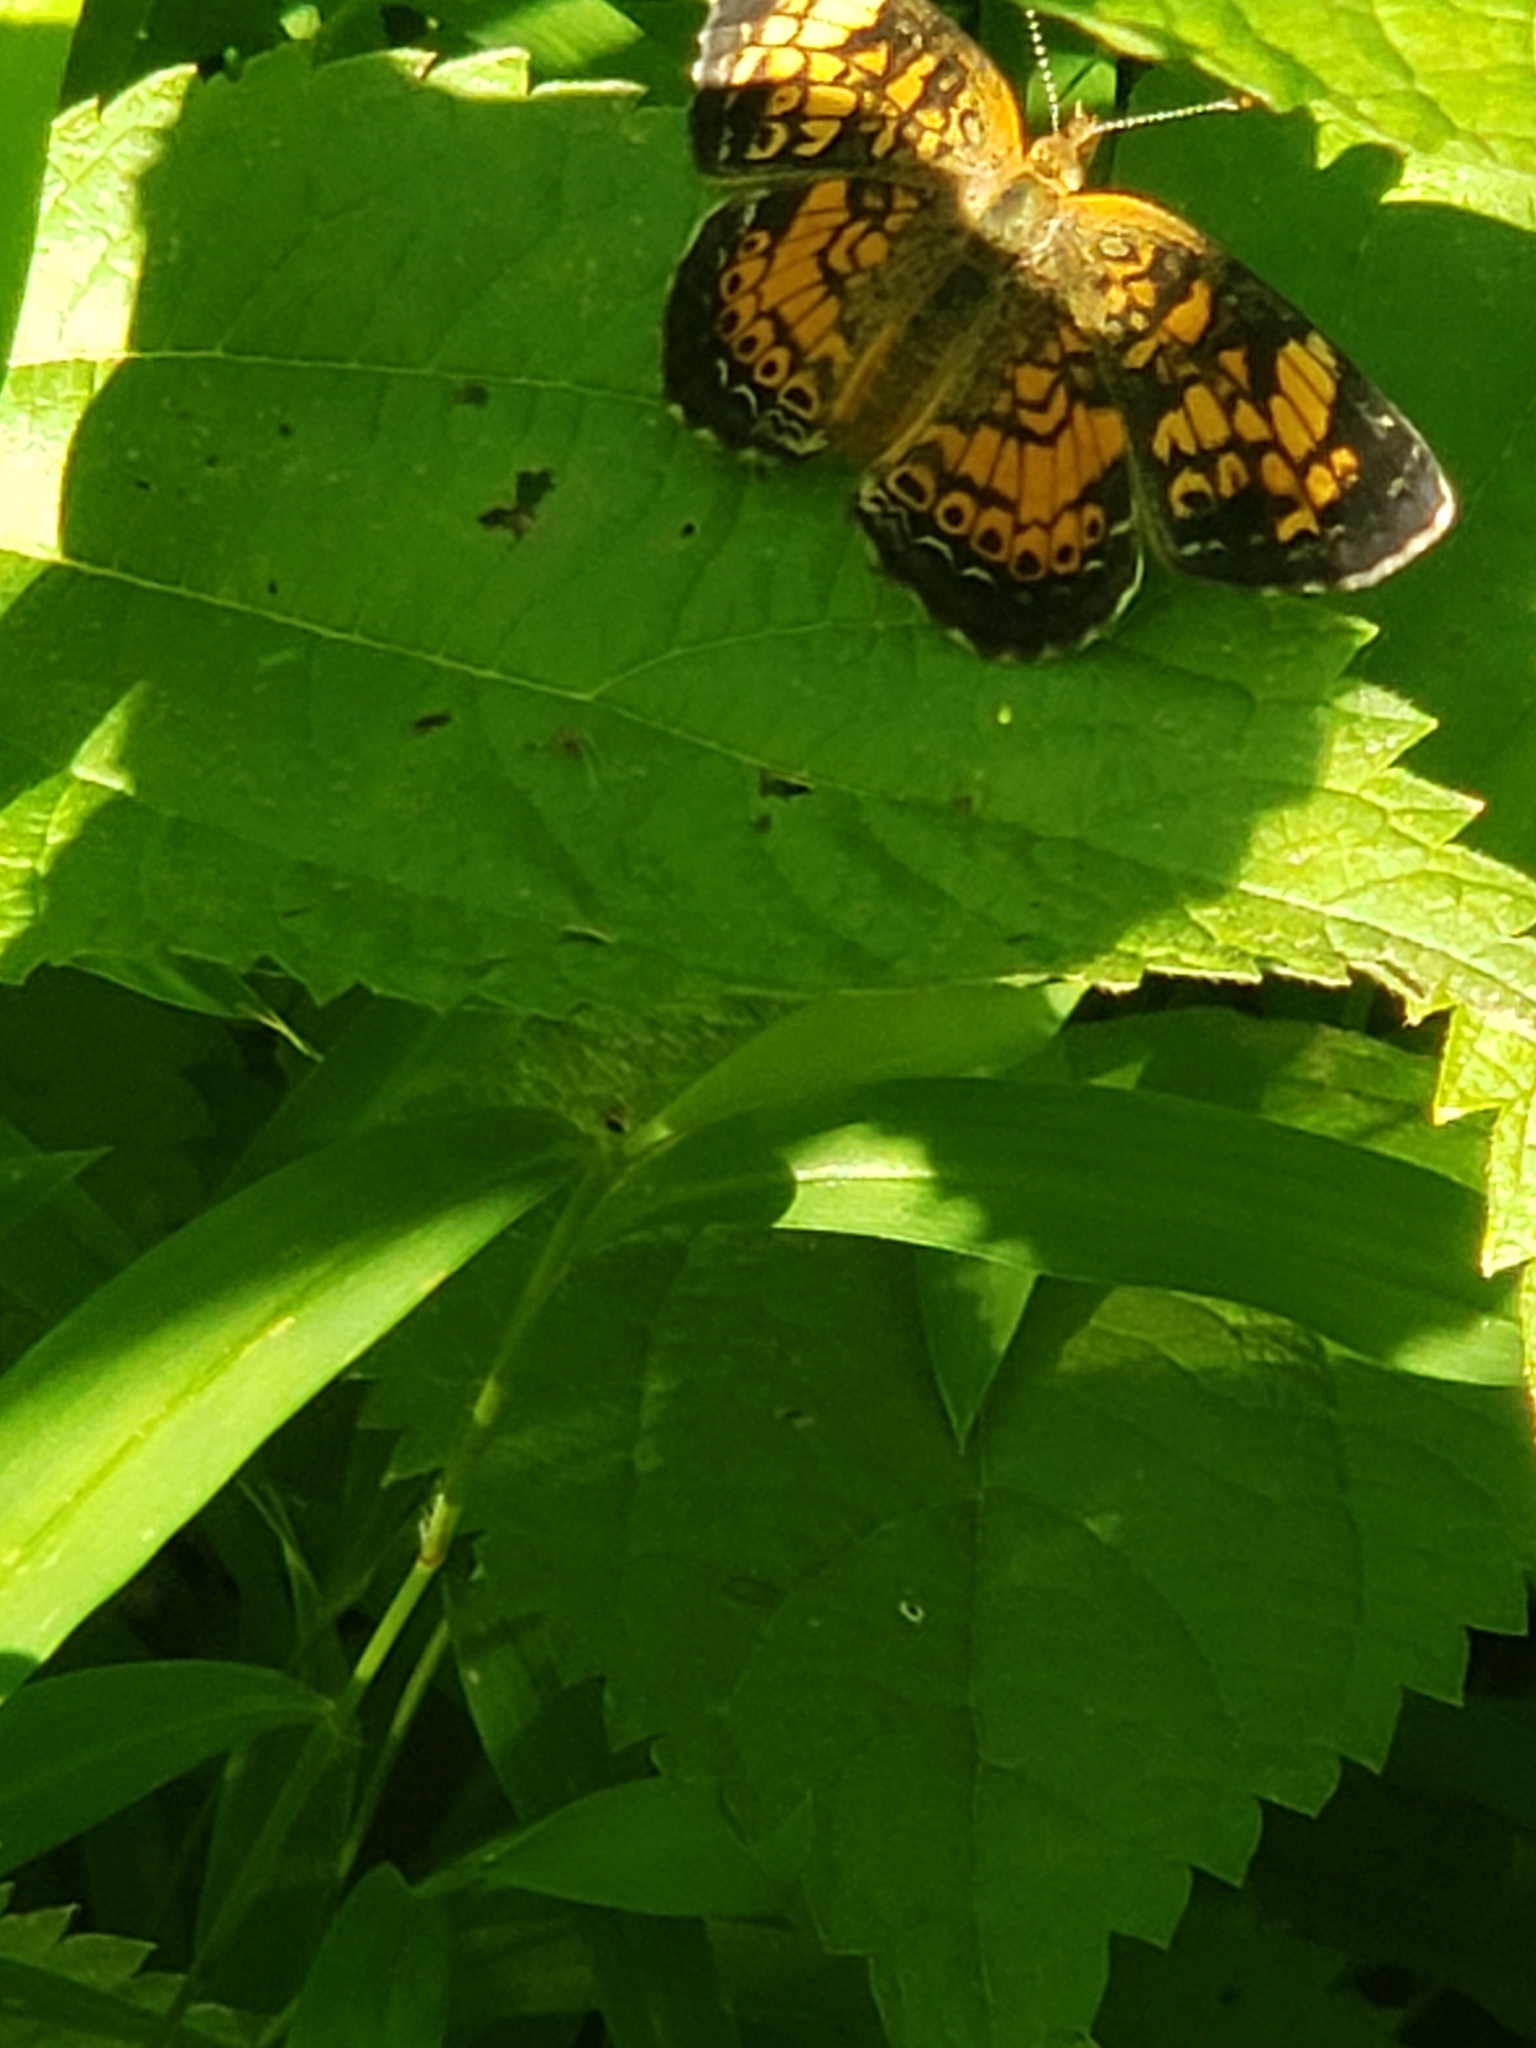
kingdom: Animalia
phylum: Arthropoda
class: Insecta
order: Lepidoptera
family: Nymphalidae
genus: Phyciodes
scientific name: Phyciodes tharos
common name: Pearl crescent
